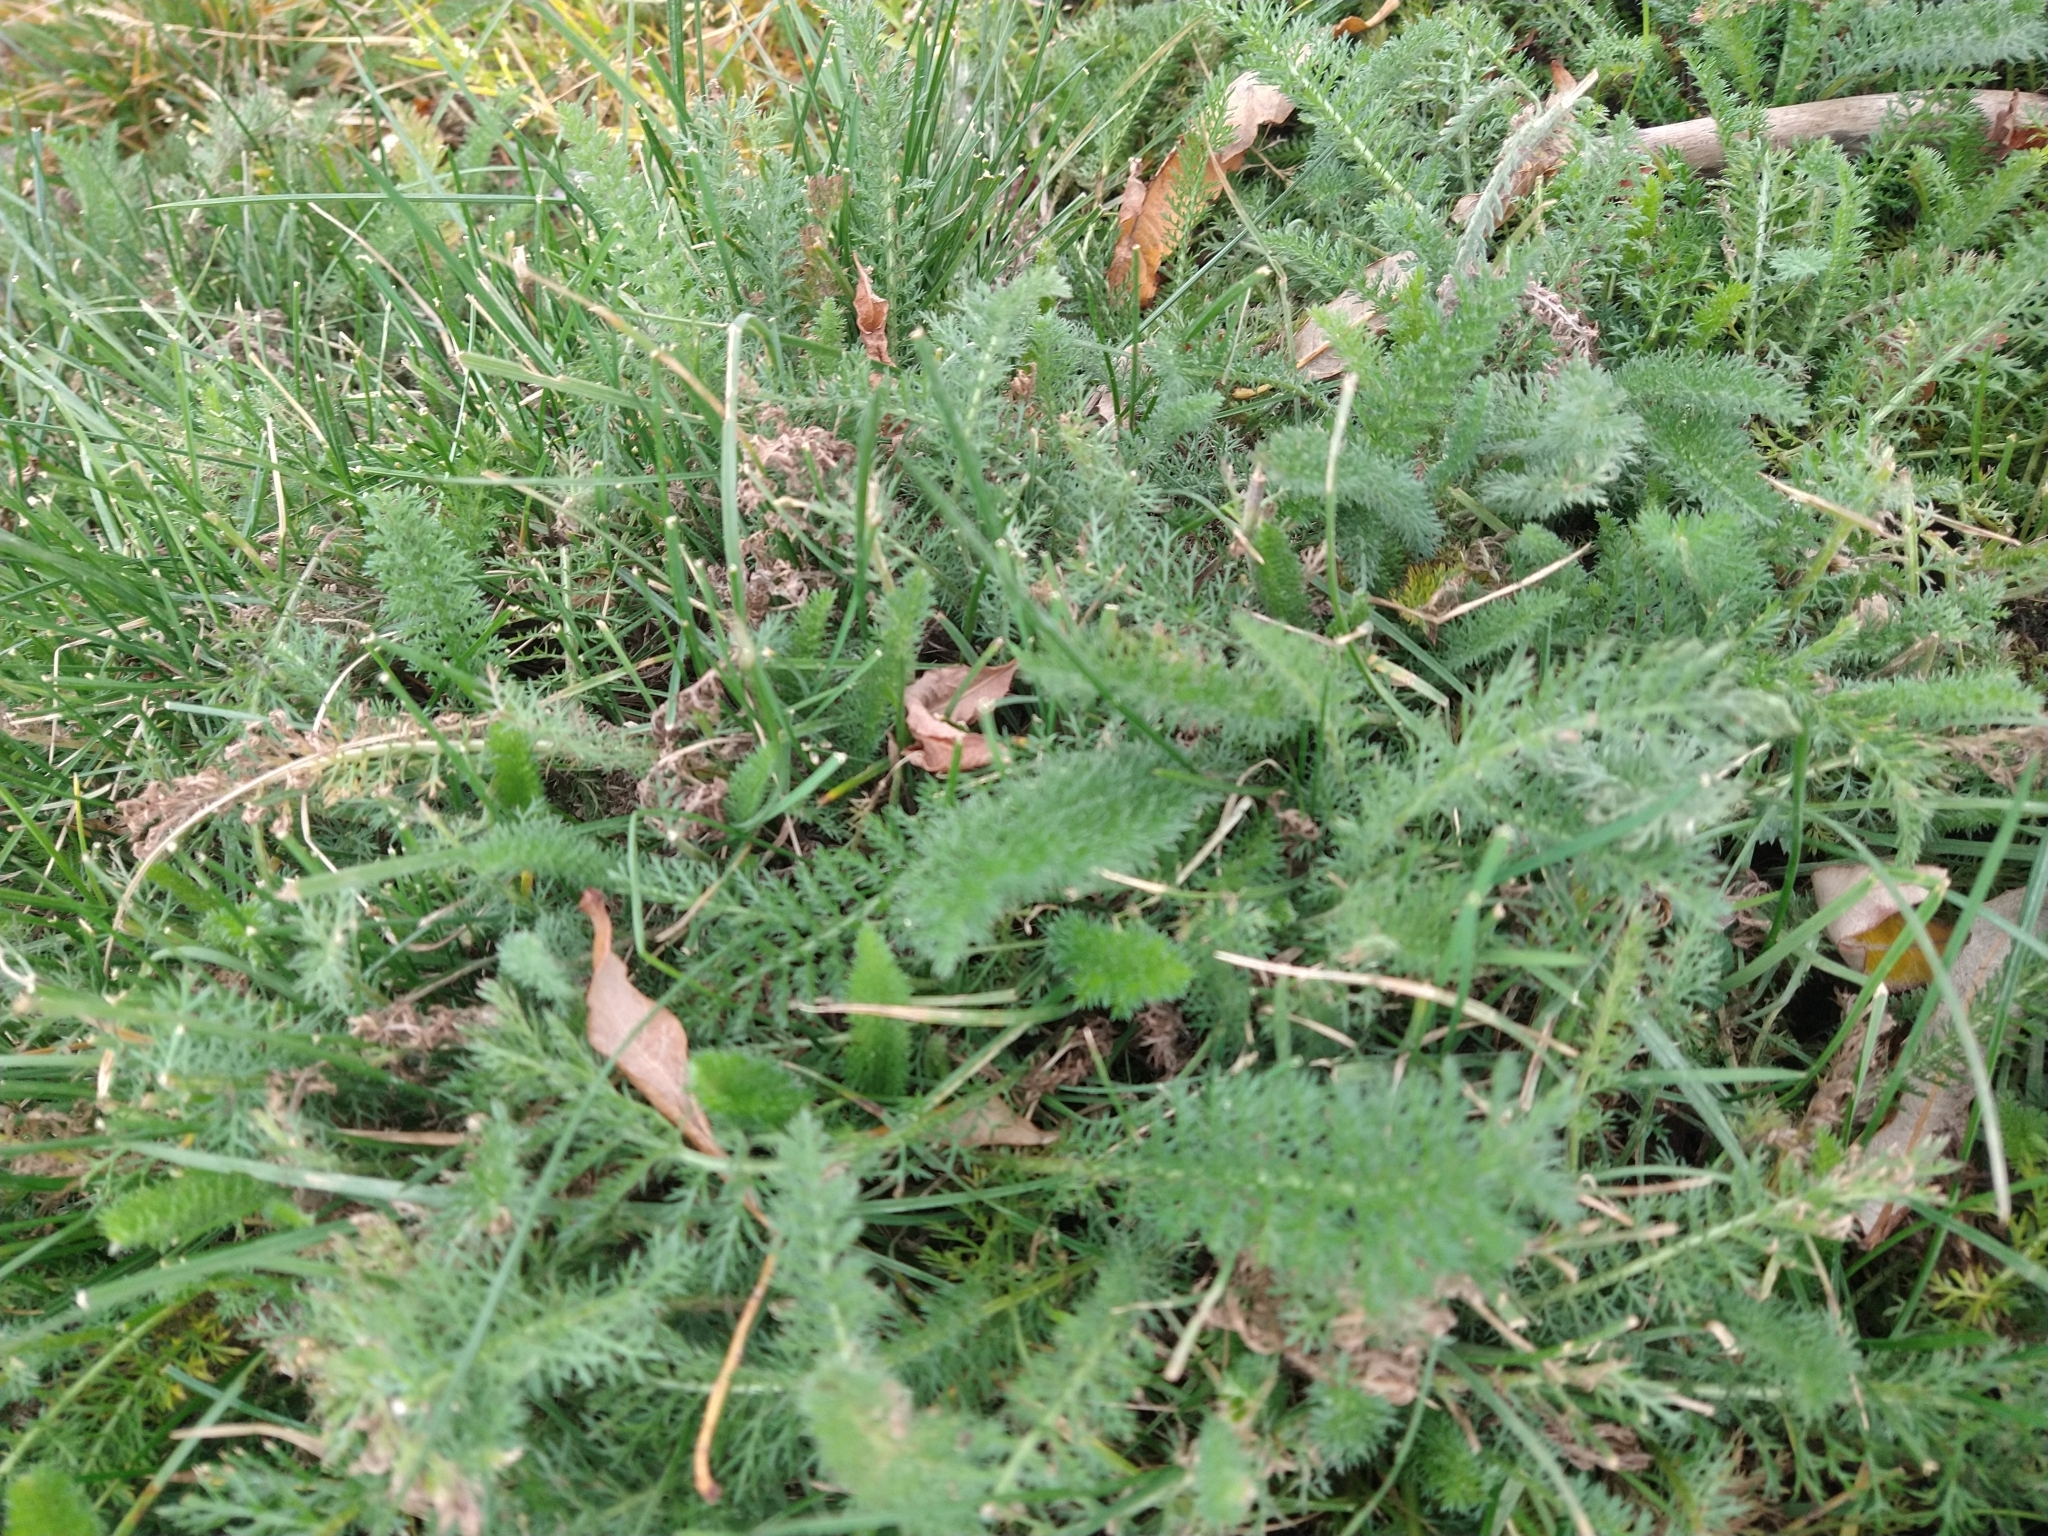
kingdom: Plantae
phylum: Tracheophyta
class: Magnoliopsida
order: Asterales
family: Asteraceae
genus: Achillea
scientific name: Achillea millefolium
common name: Yarrow
